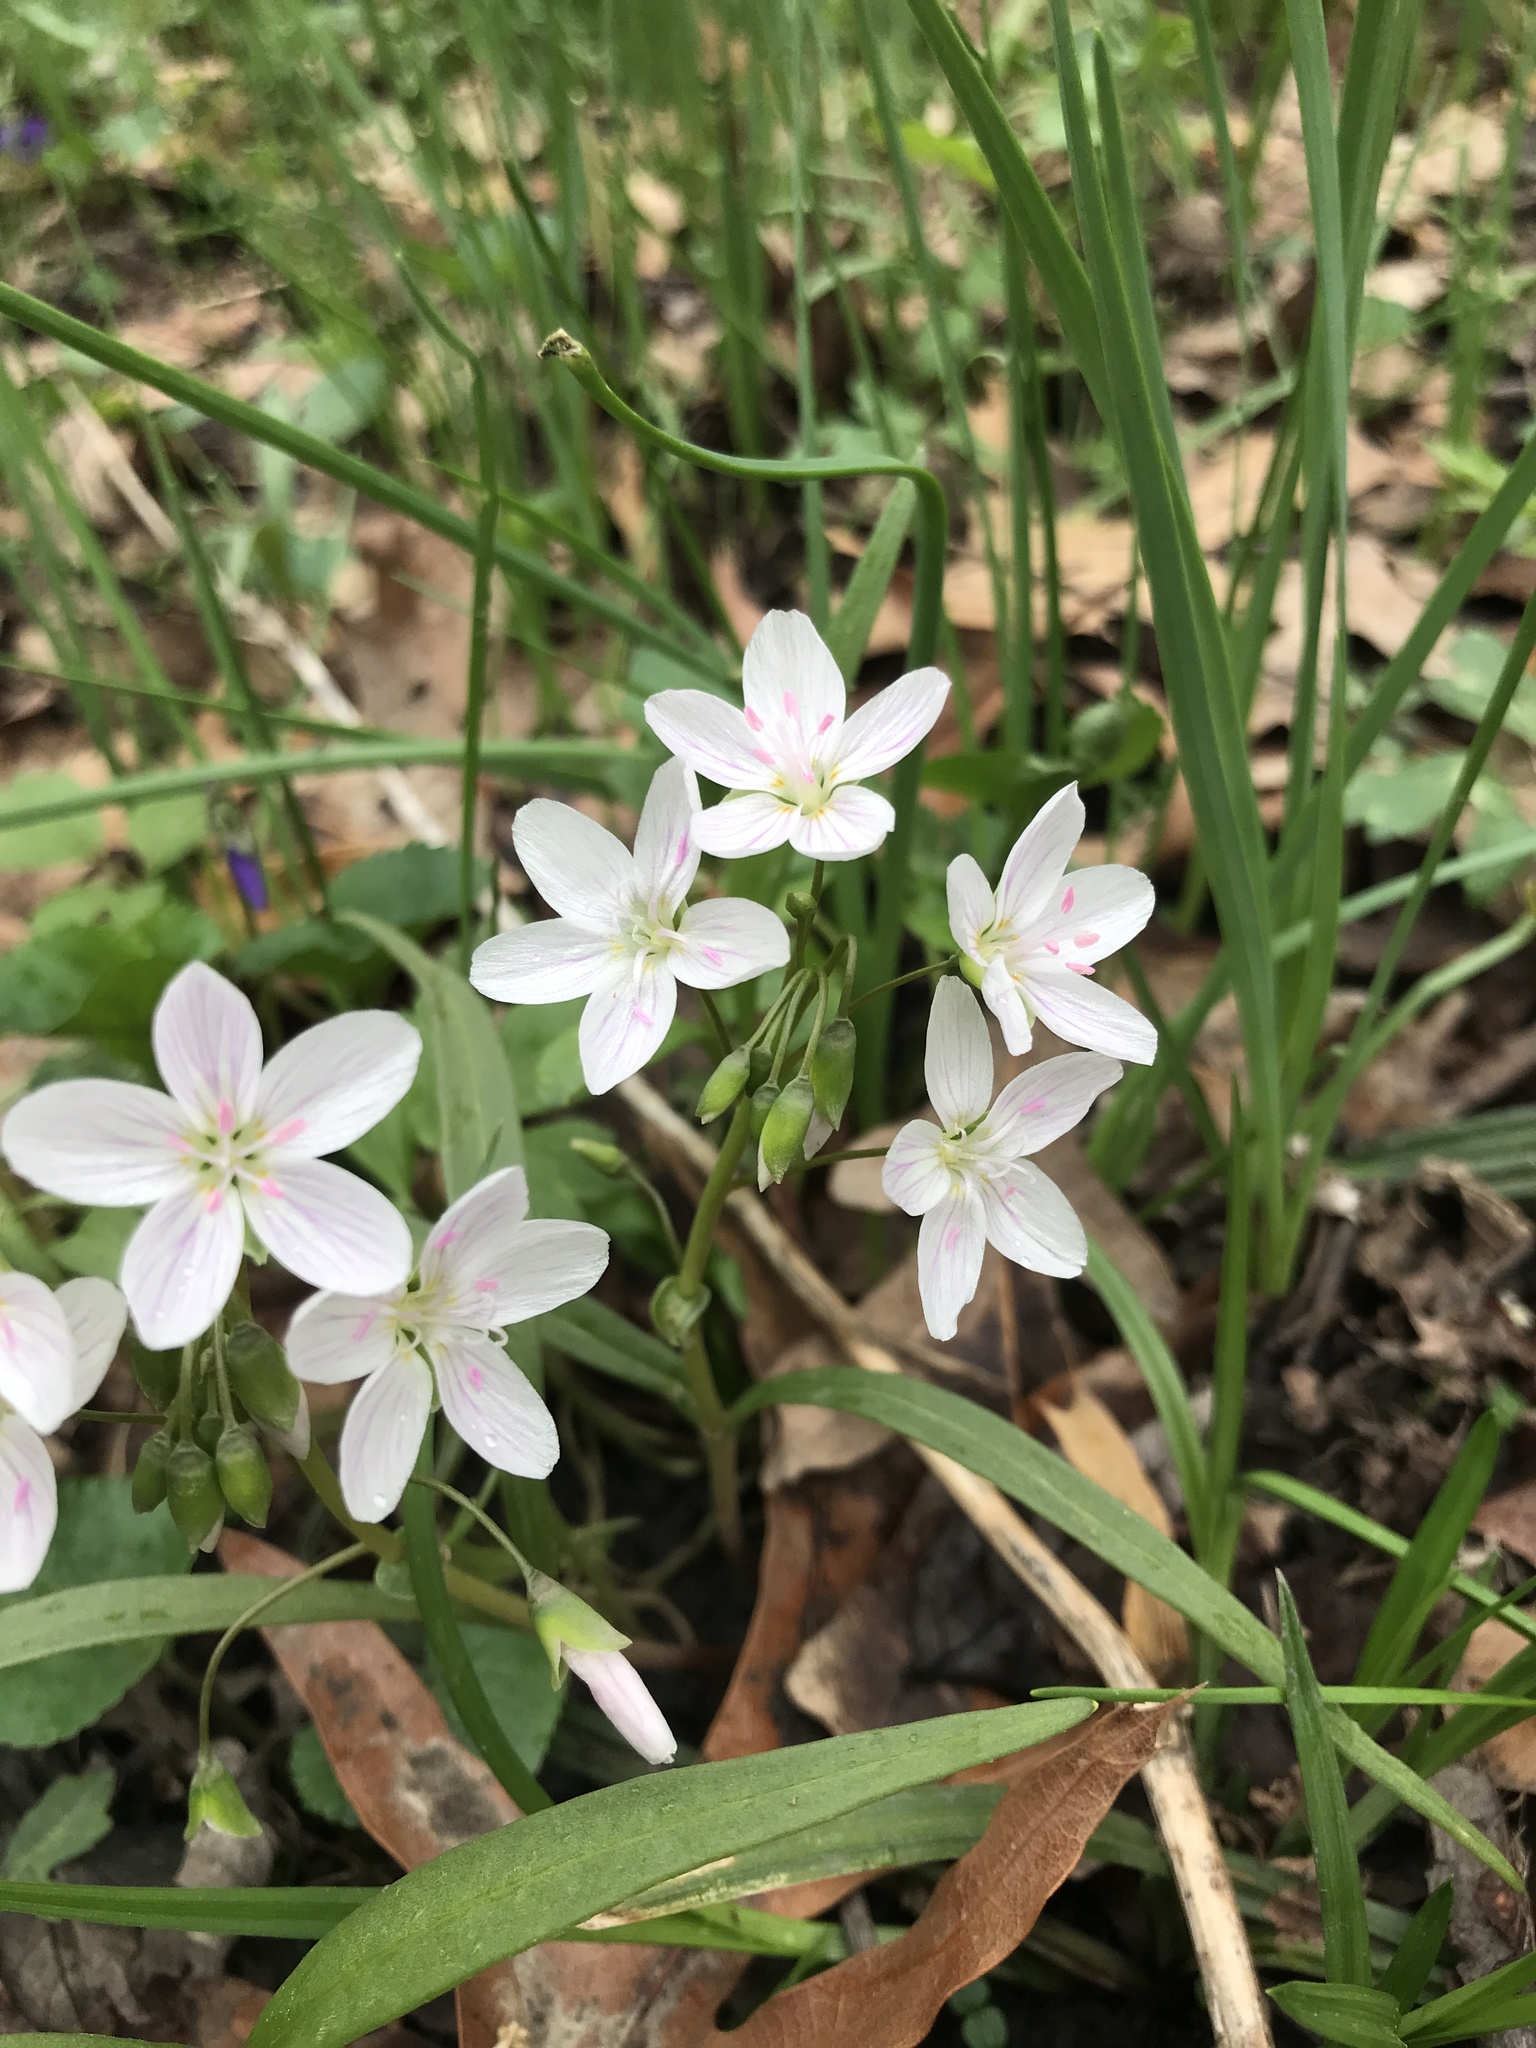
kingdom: Plantae
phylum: Tracheophyta
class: Magnoliopsida
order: Caryophyllales
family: Montiaceae
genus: Claytonia
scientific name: Claytonia virginica
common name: Virginia springbeauty
